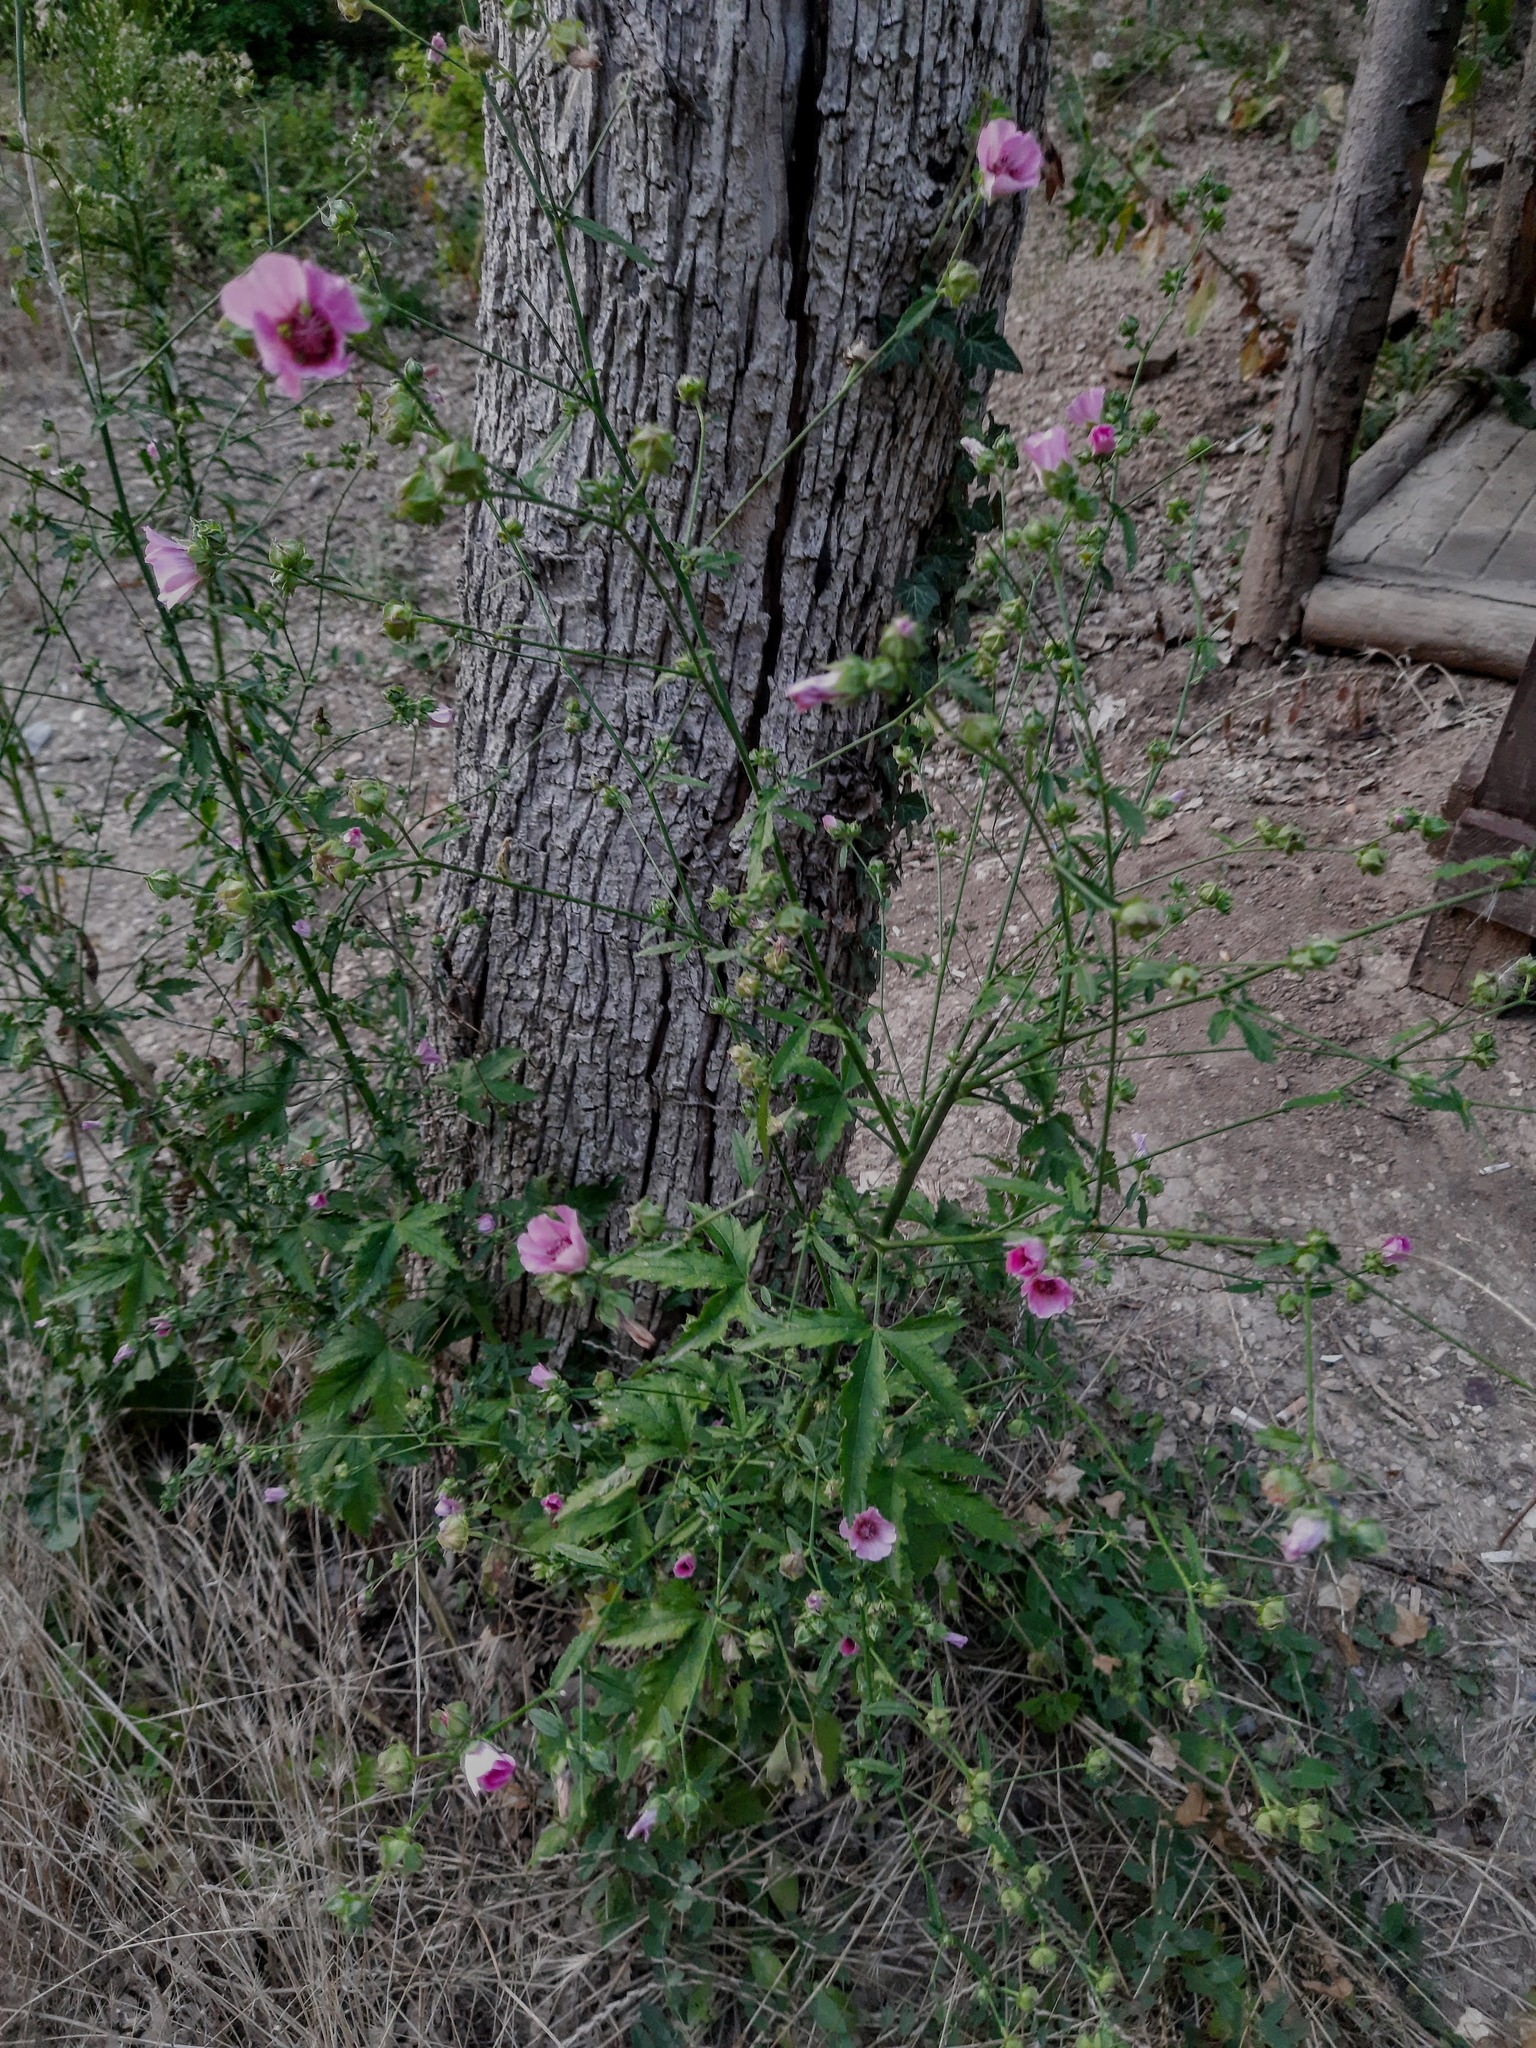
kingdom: Plantae
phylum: Tracheophyta
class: Magnoliopsida
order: Malvales
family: Malvaceae
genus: Althaea
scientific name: Althaea cannabina
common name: Palm-leaf marshmallow
